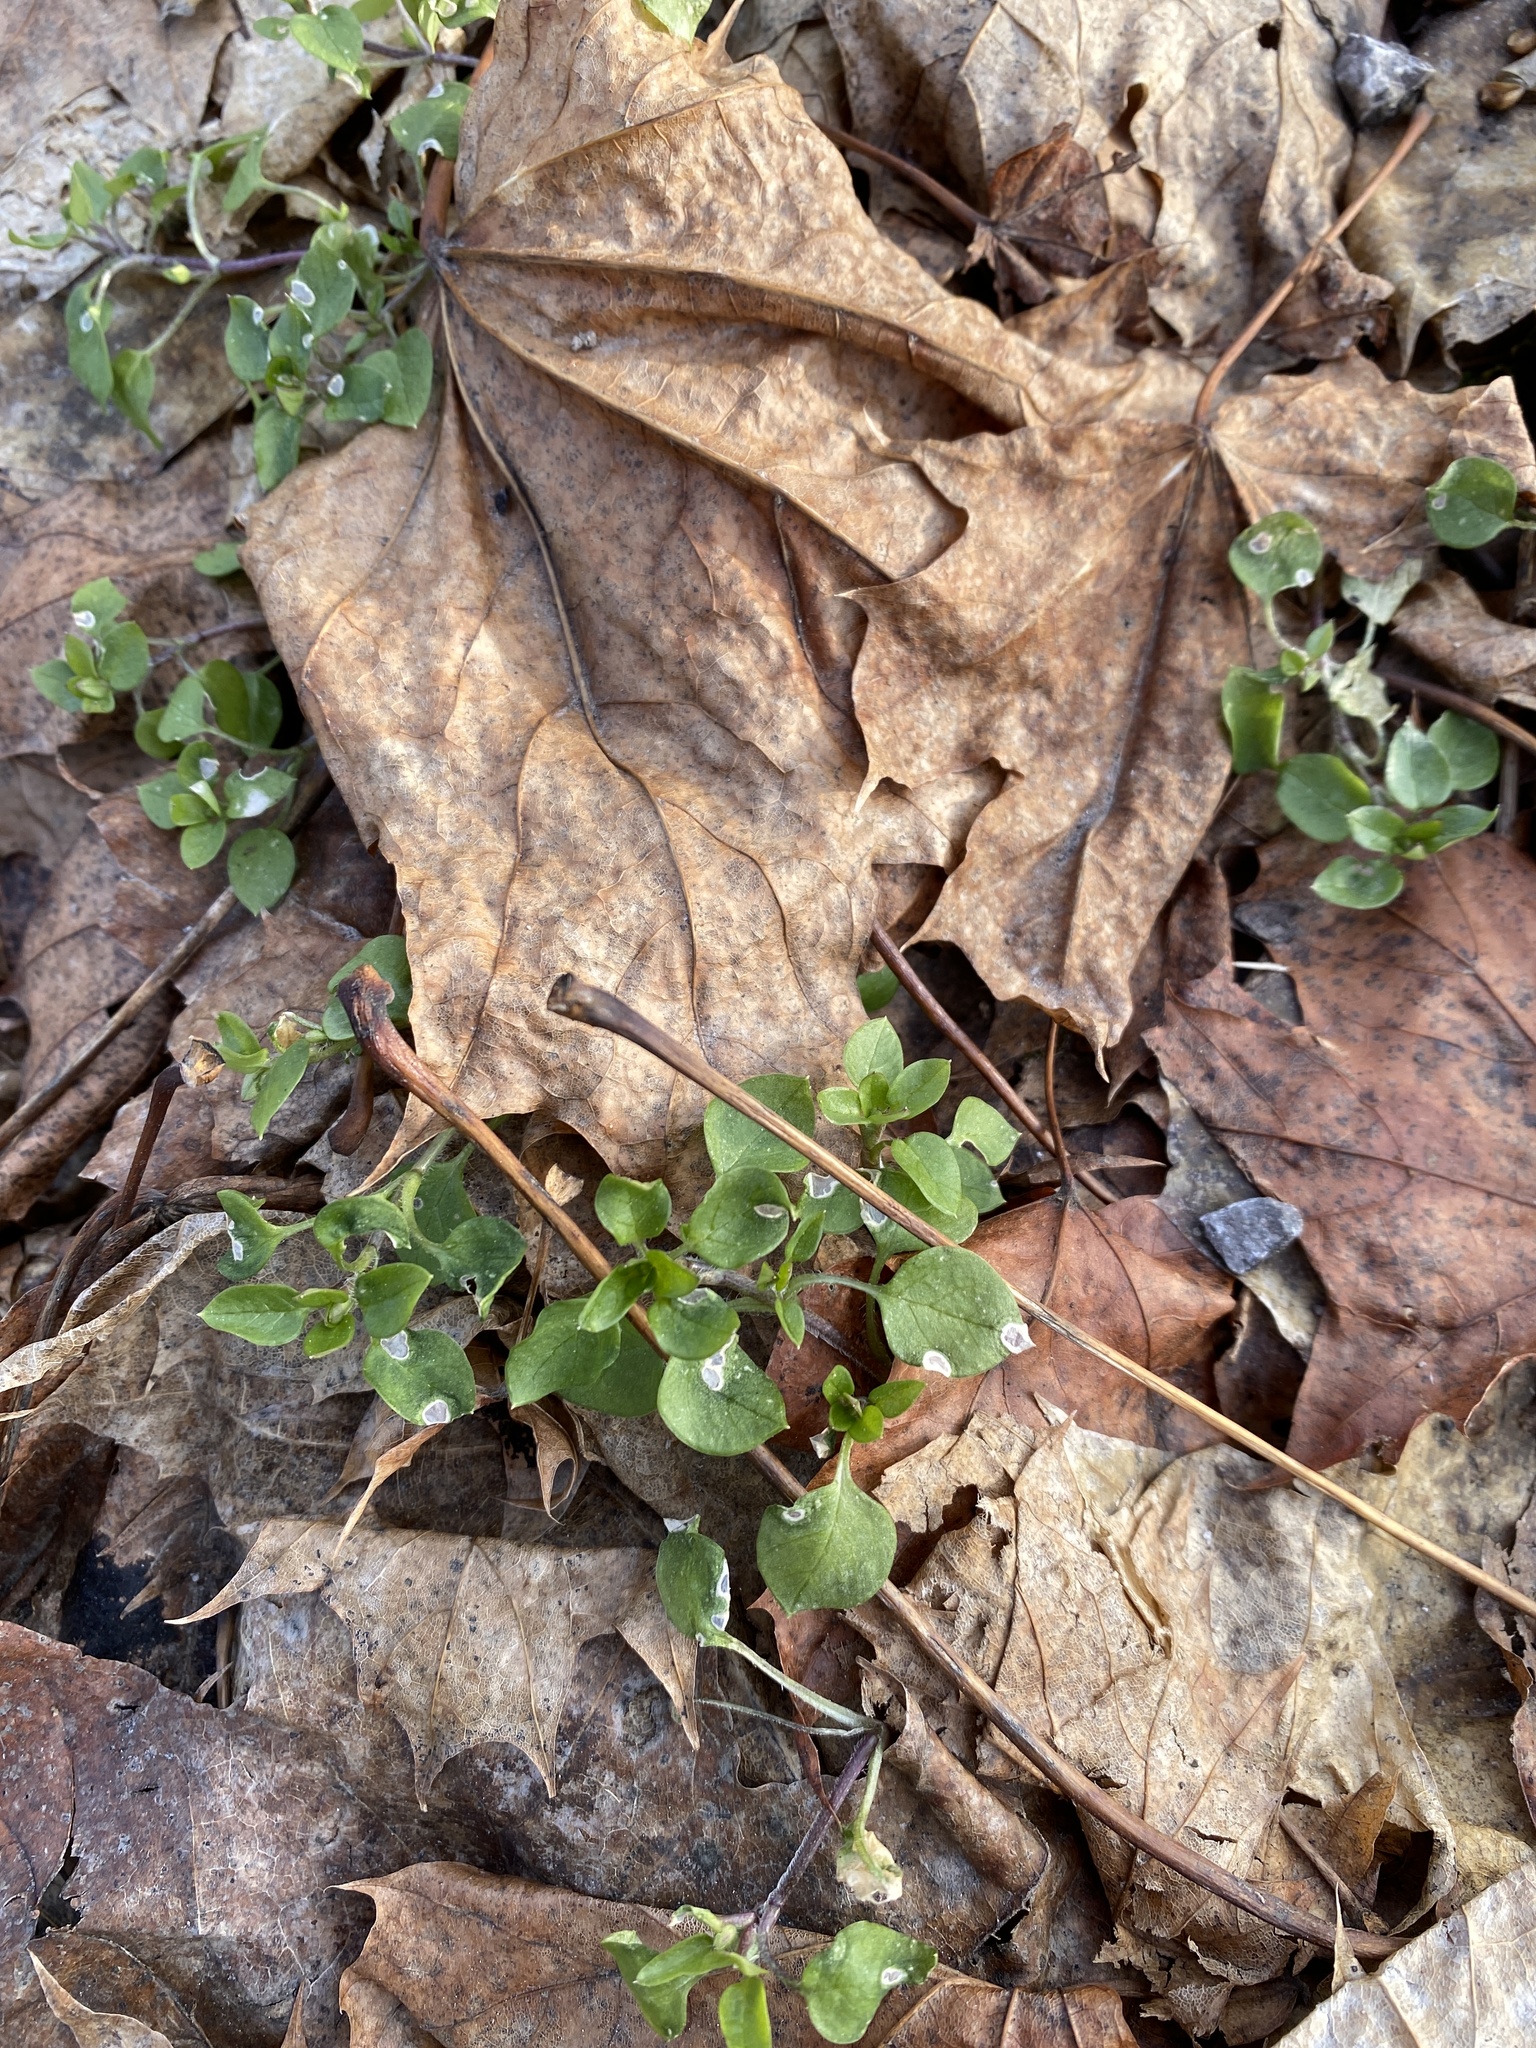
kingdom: Plantae
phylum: Tracheophyta
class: Magnoliopsida
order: Caryophyllales
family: Caryophyllaceae
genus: Stellaria
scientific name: Stellaria media
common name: Common chickweed
